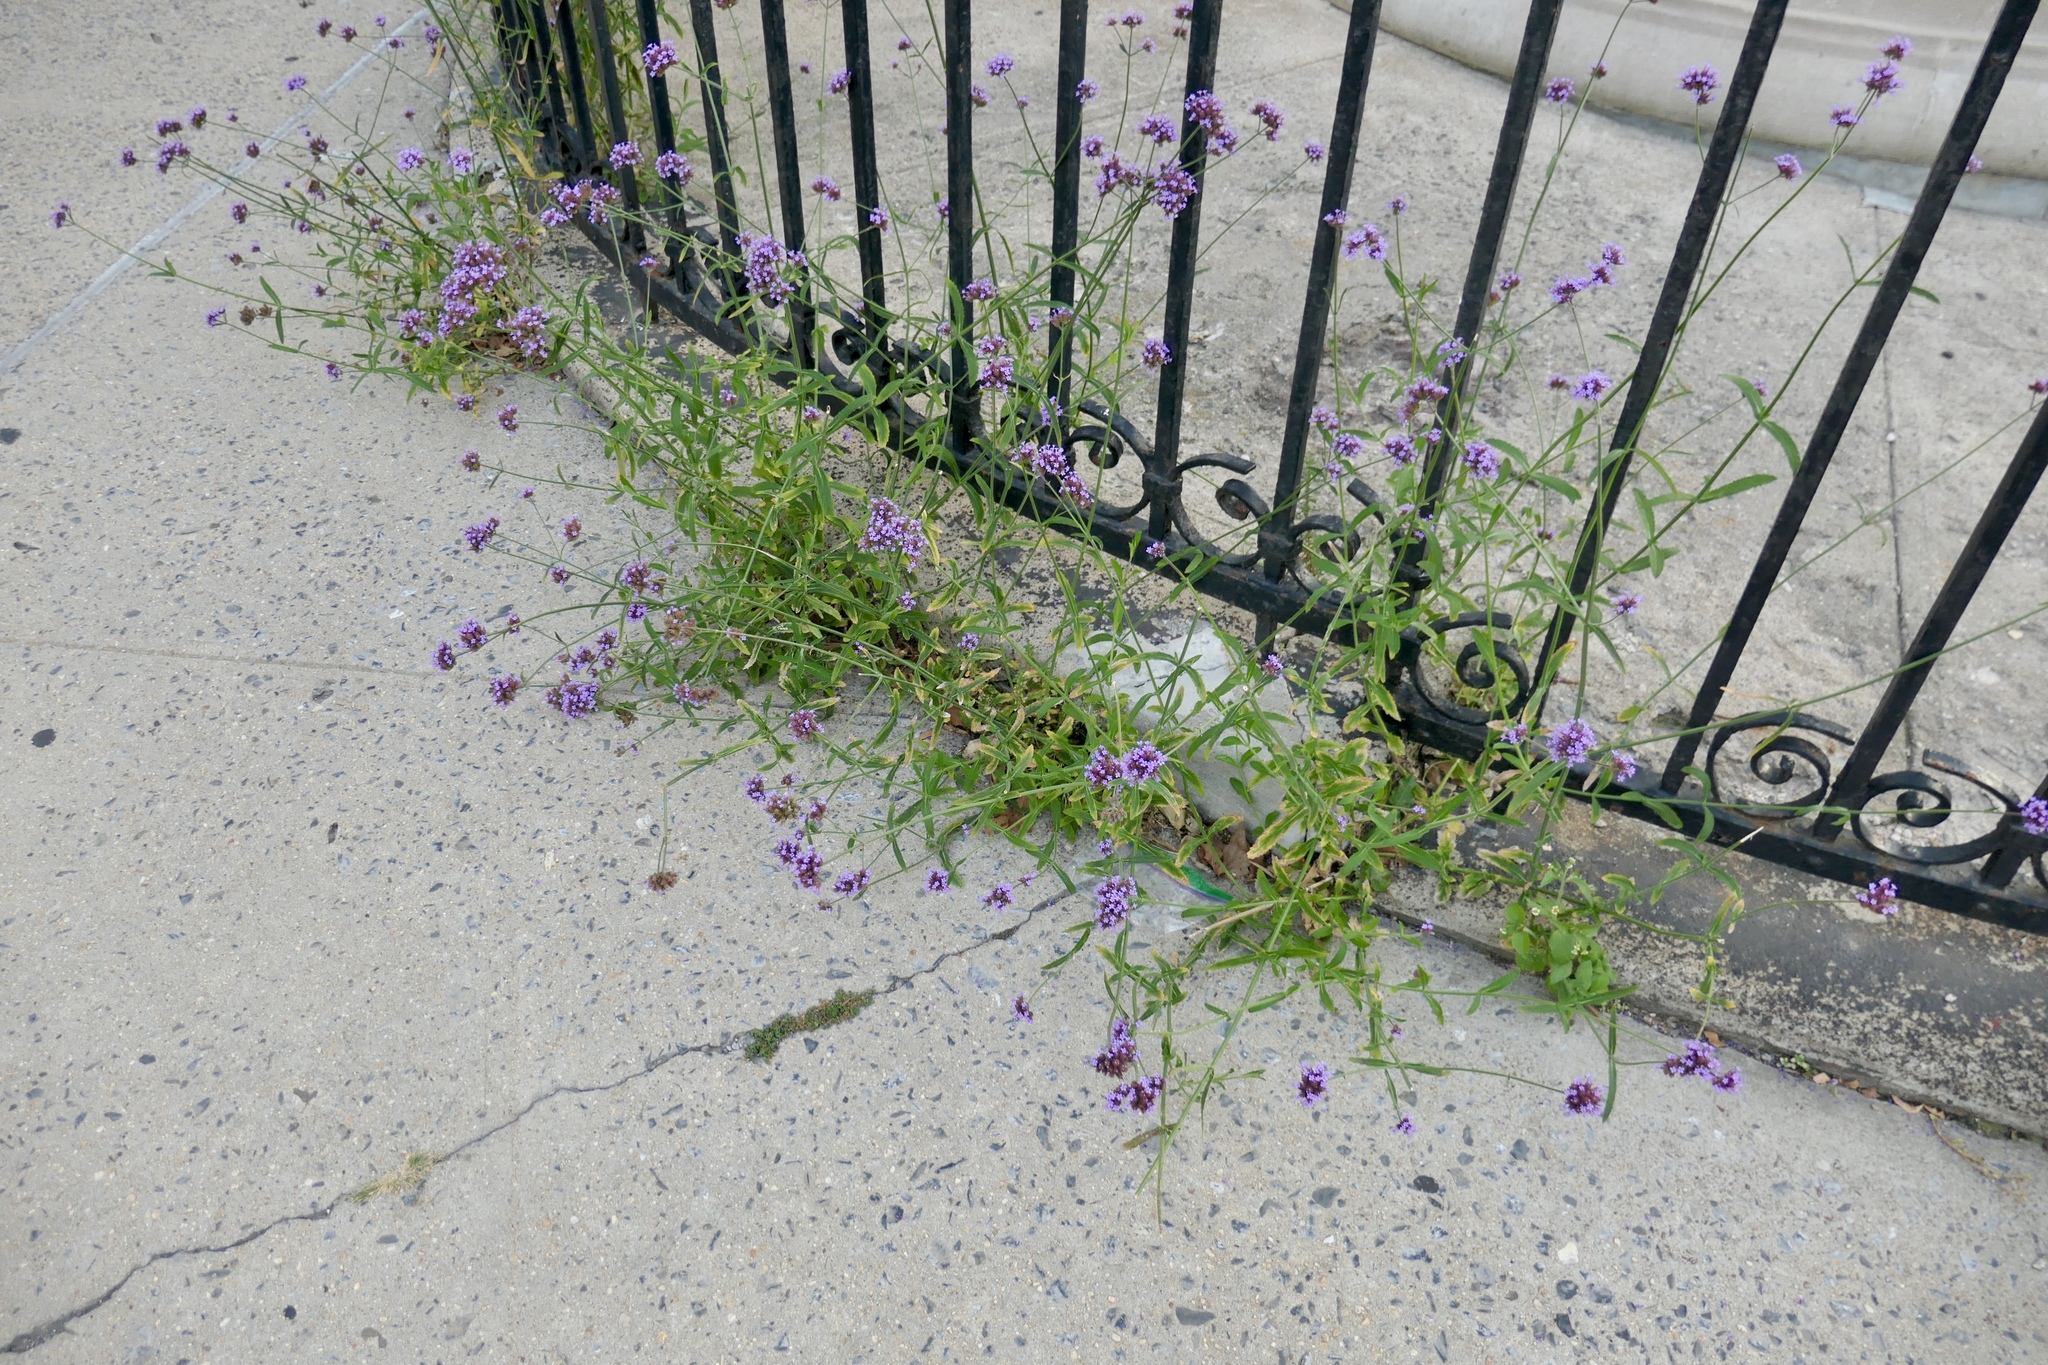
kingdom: Plantae
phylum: Tracheophyta
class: Magnoliopsida
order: Lamiales
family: Verbenaceae
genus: Verbena
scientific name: Verbena bonariensis
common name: Purpletop vervain
